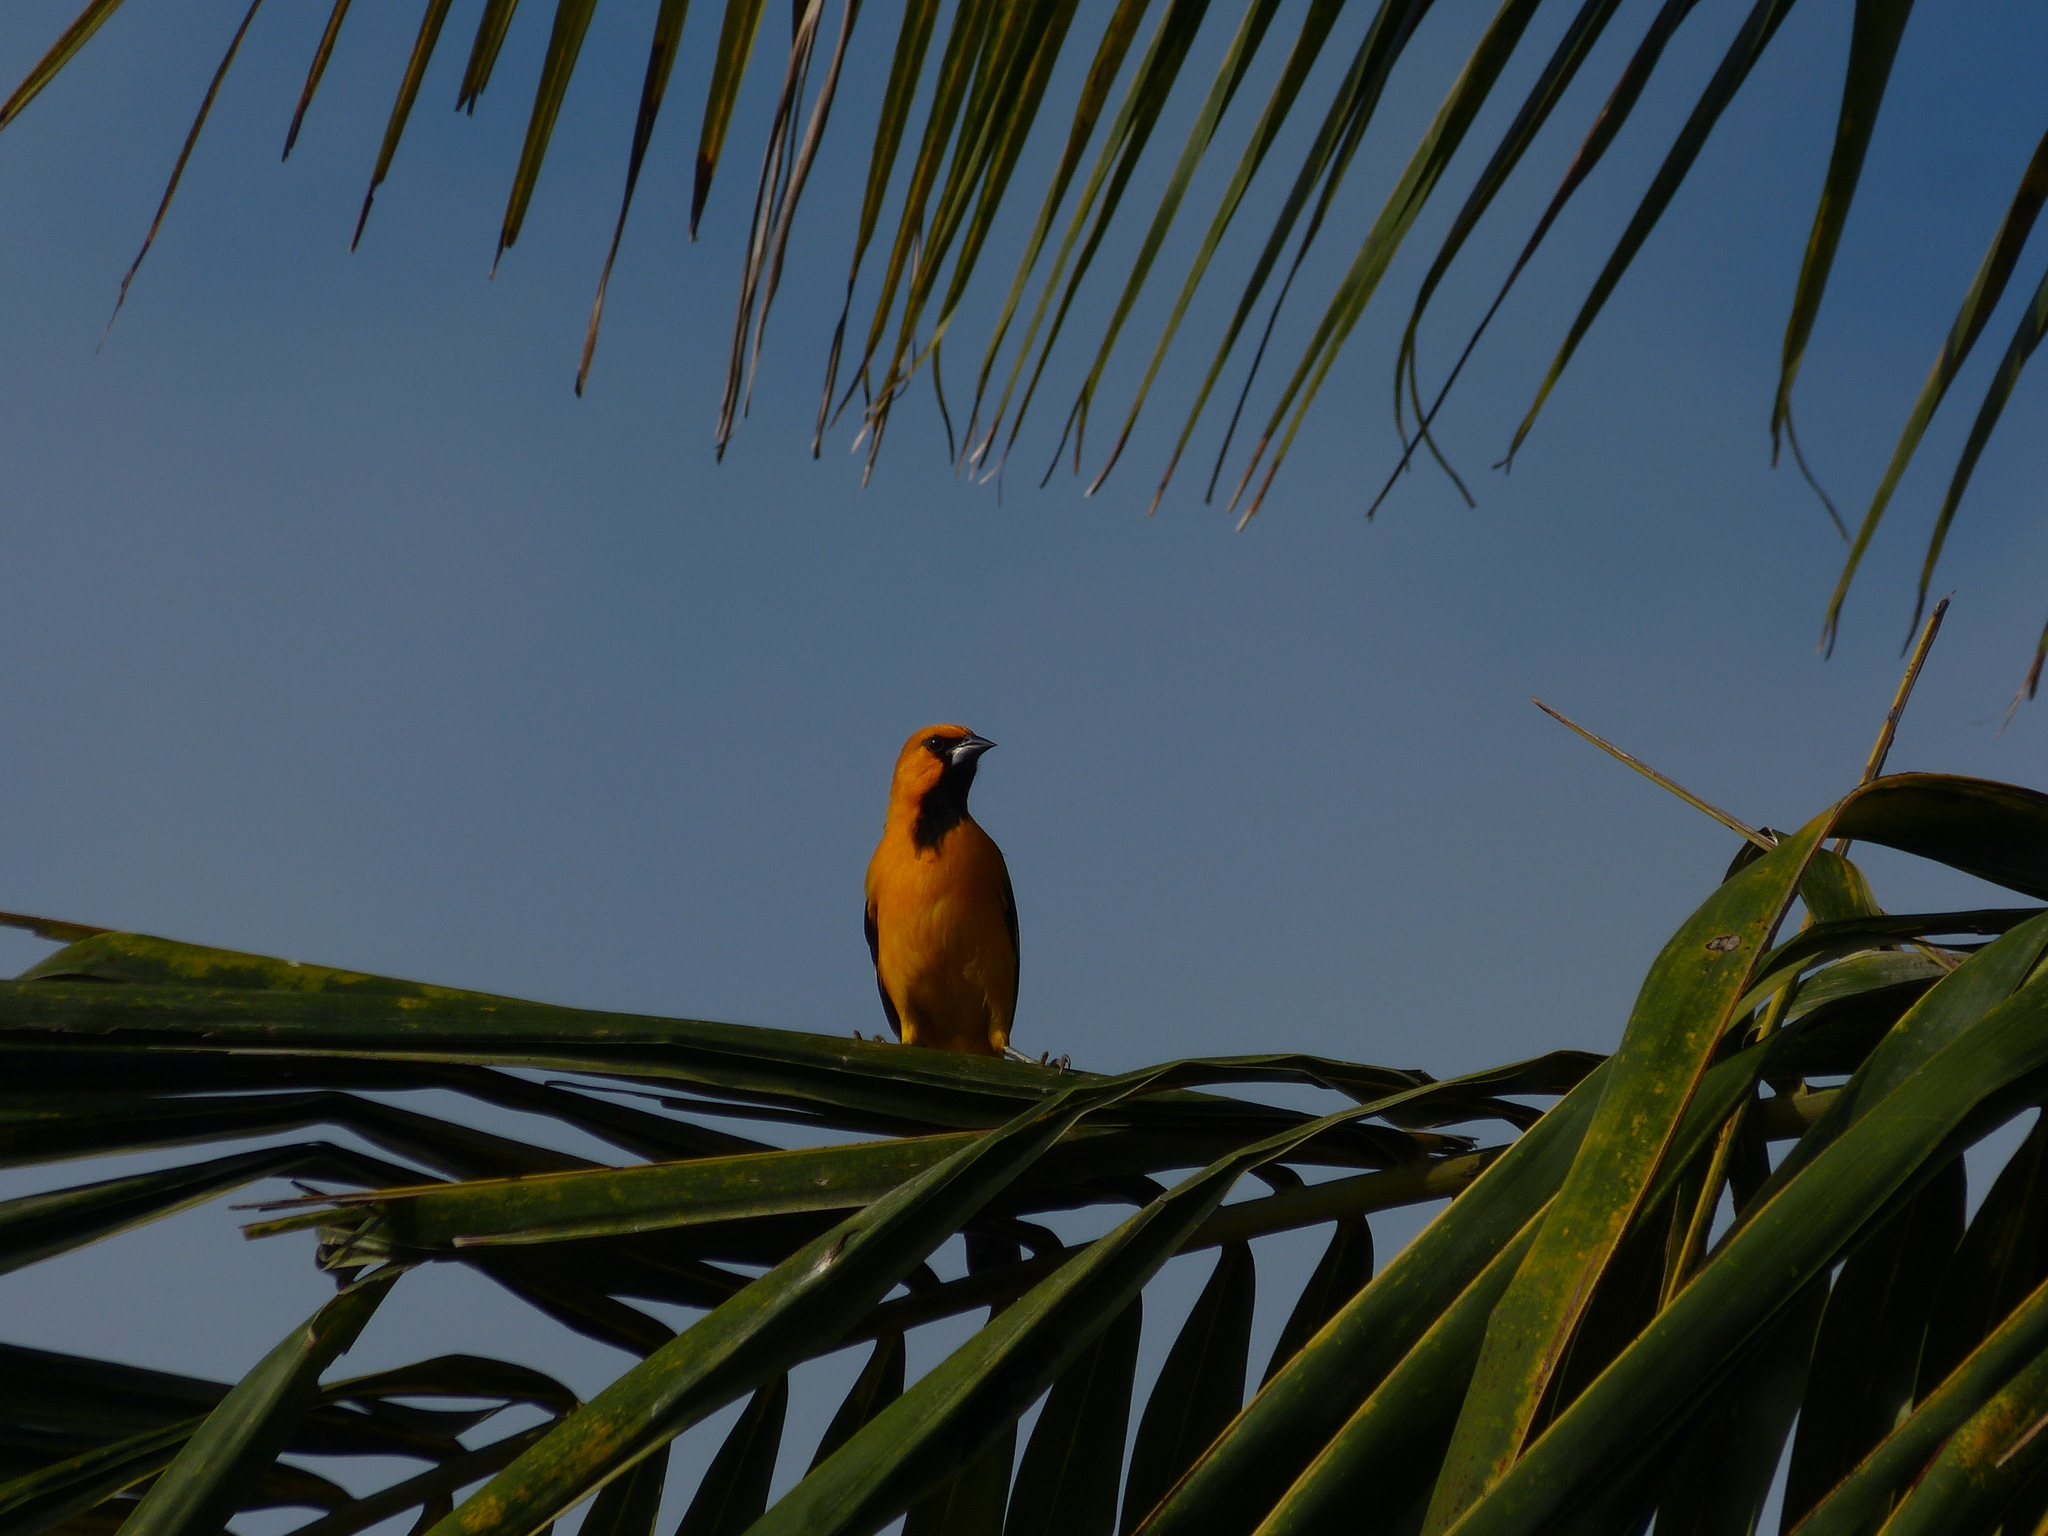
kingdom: Animalia
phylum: Chordata
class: Aves
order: Passeriformes
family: Icteridae
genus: Icterus
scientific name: Icterus gularis
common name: Altamira oriole
